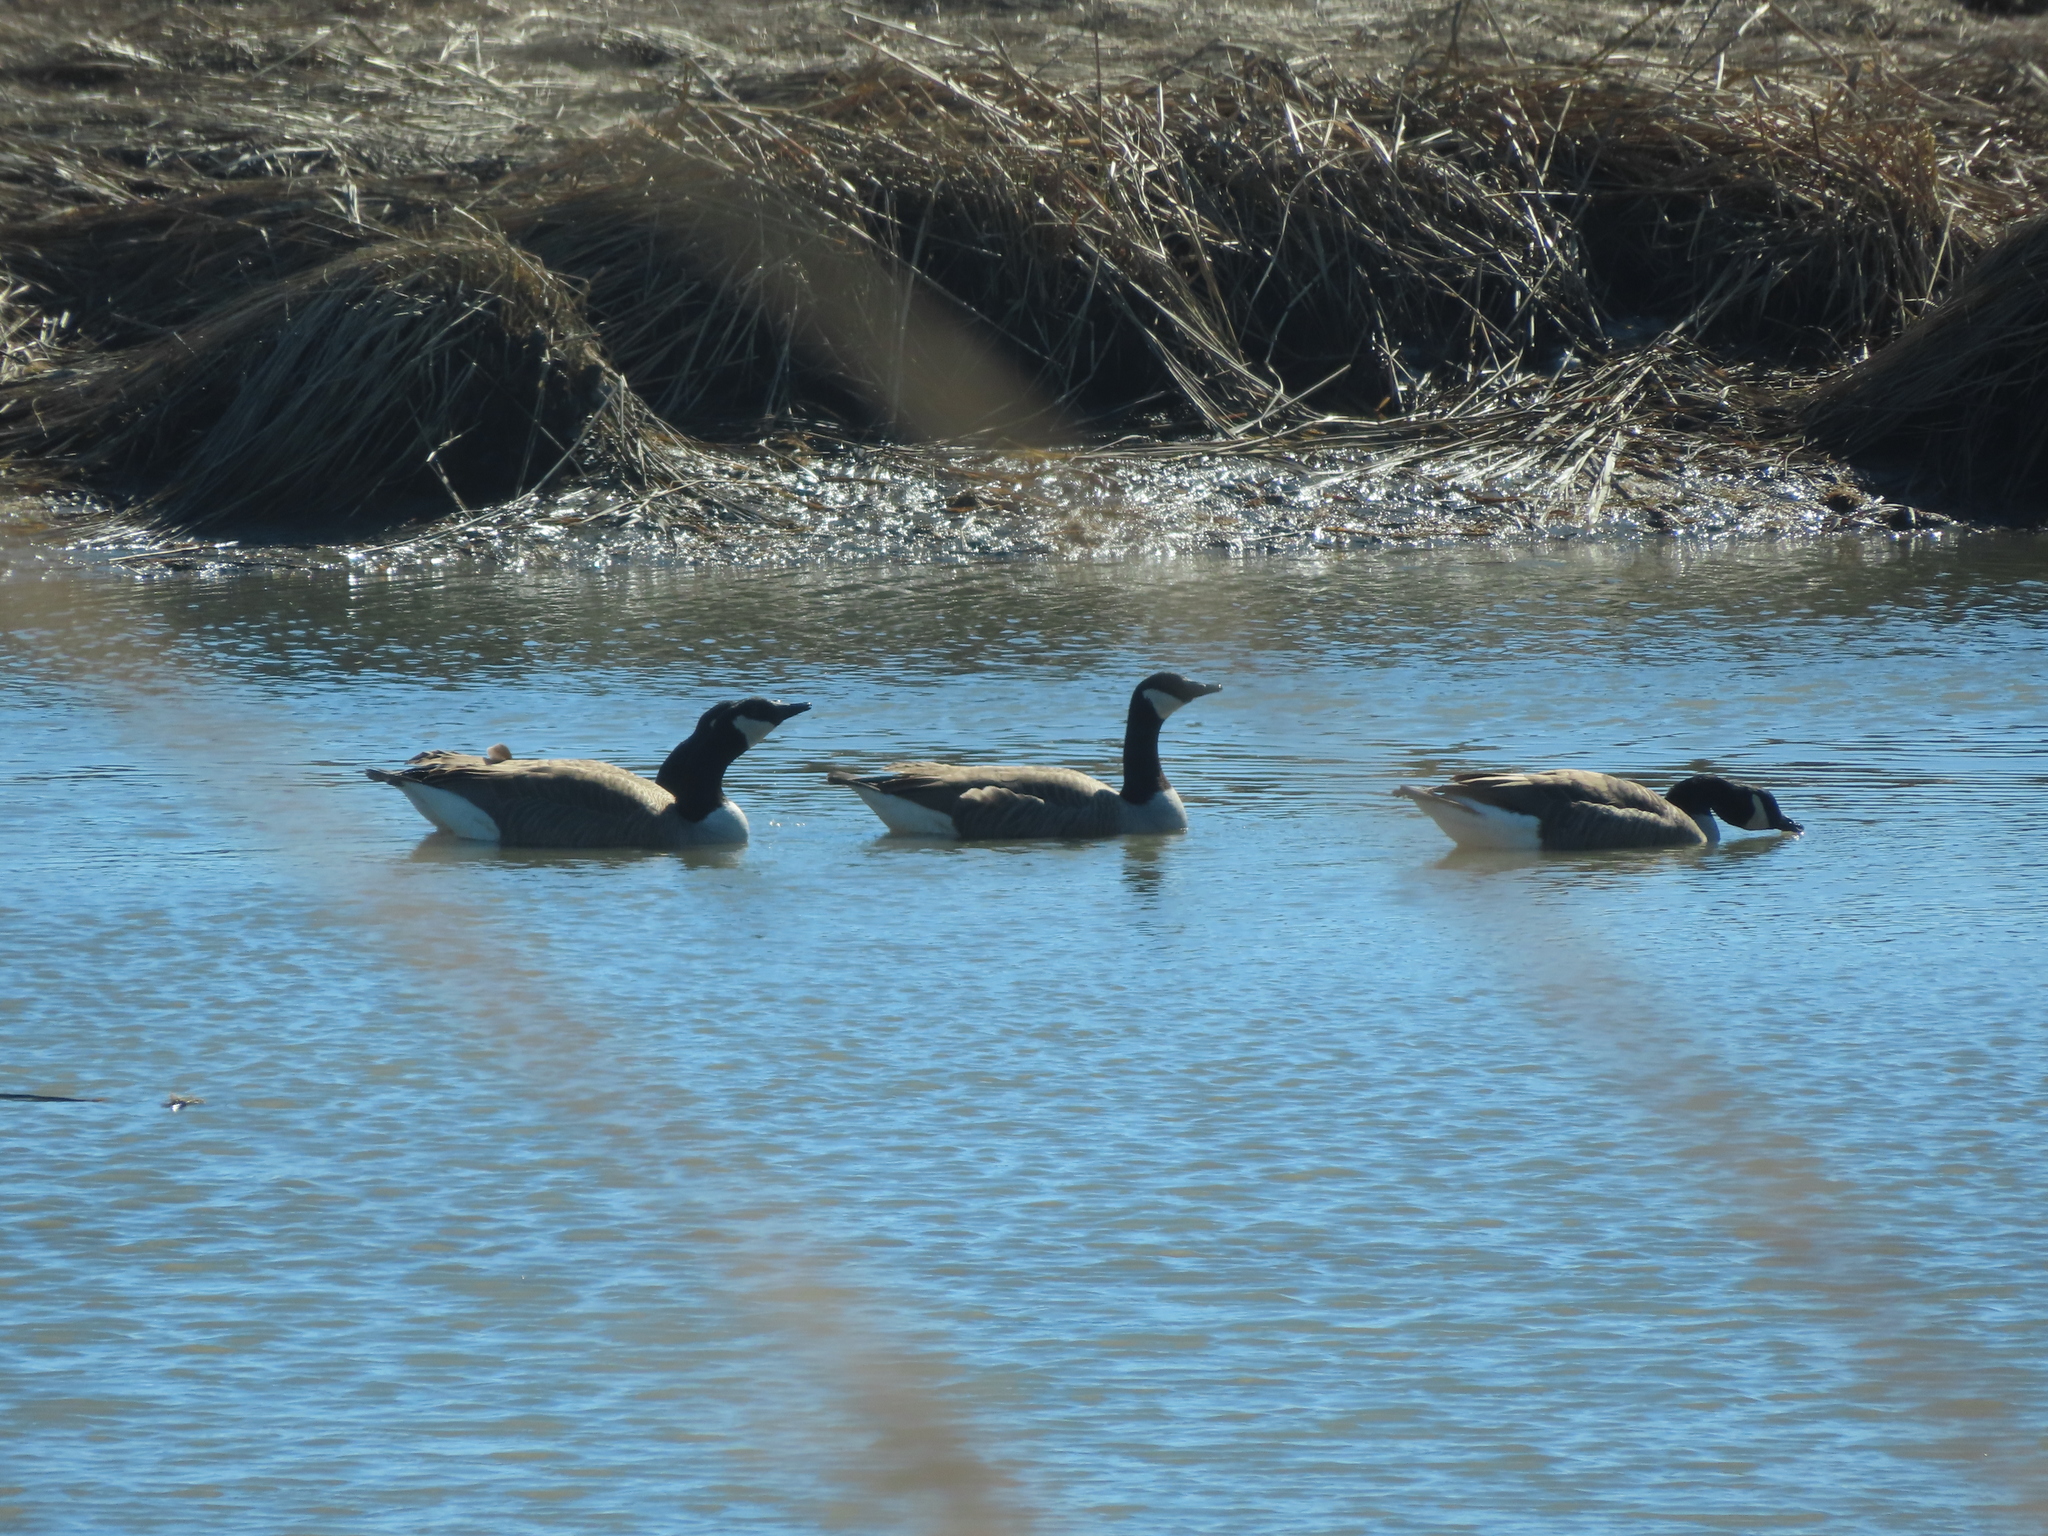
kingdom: Animalia
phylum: Chordata
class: Aves
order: Anseriformes
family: Anatidae
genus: Branta
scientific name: Branta canadensis
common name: Canada goose
